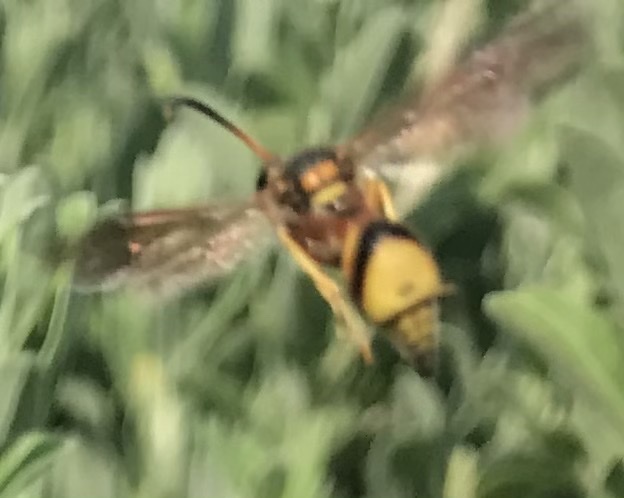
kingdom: Animalia
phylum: Arthropoda
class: Insecta
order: Hymenoptera
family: Vespidae
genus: Eumenes
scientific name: Eumenes bollii
